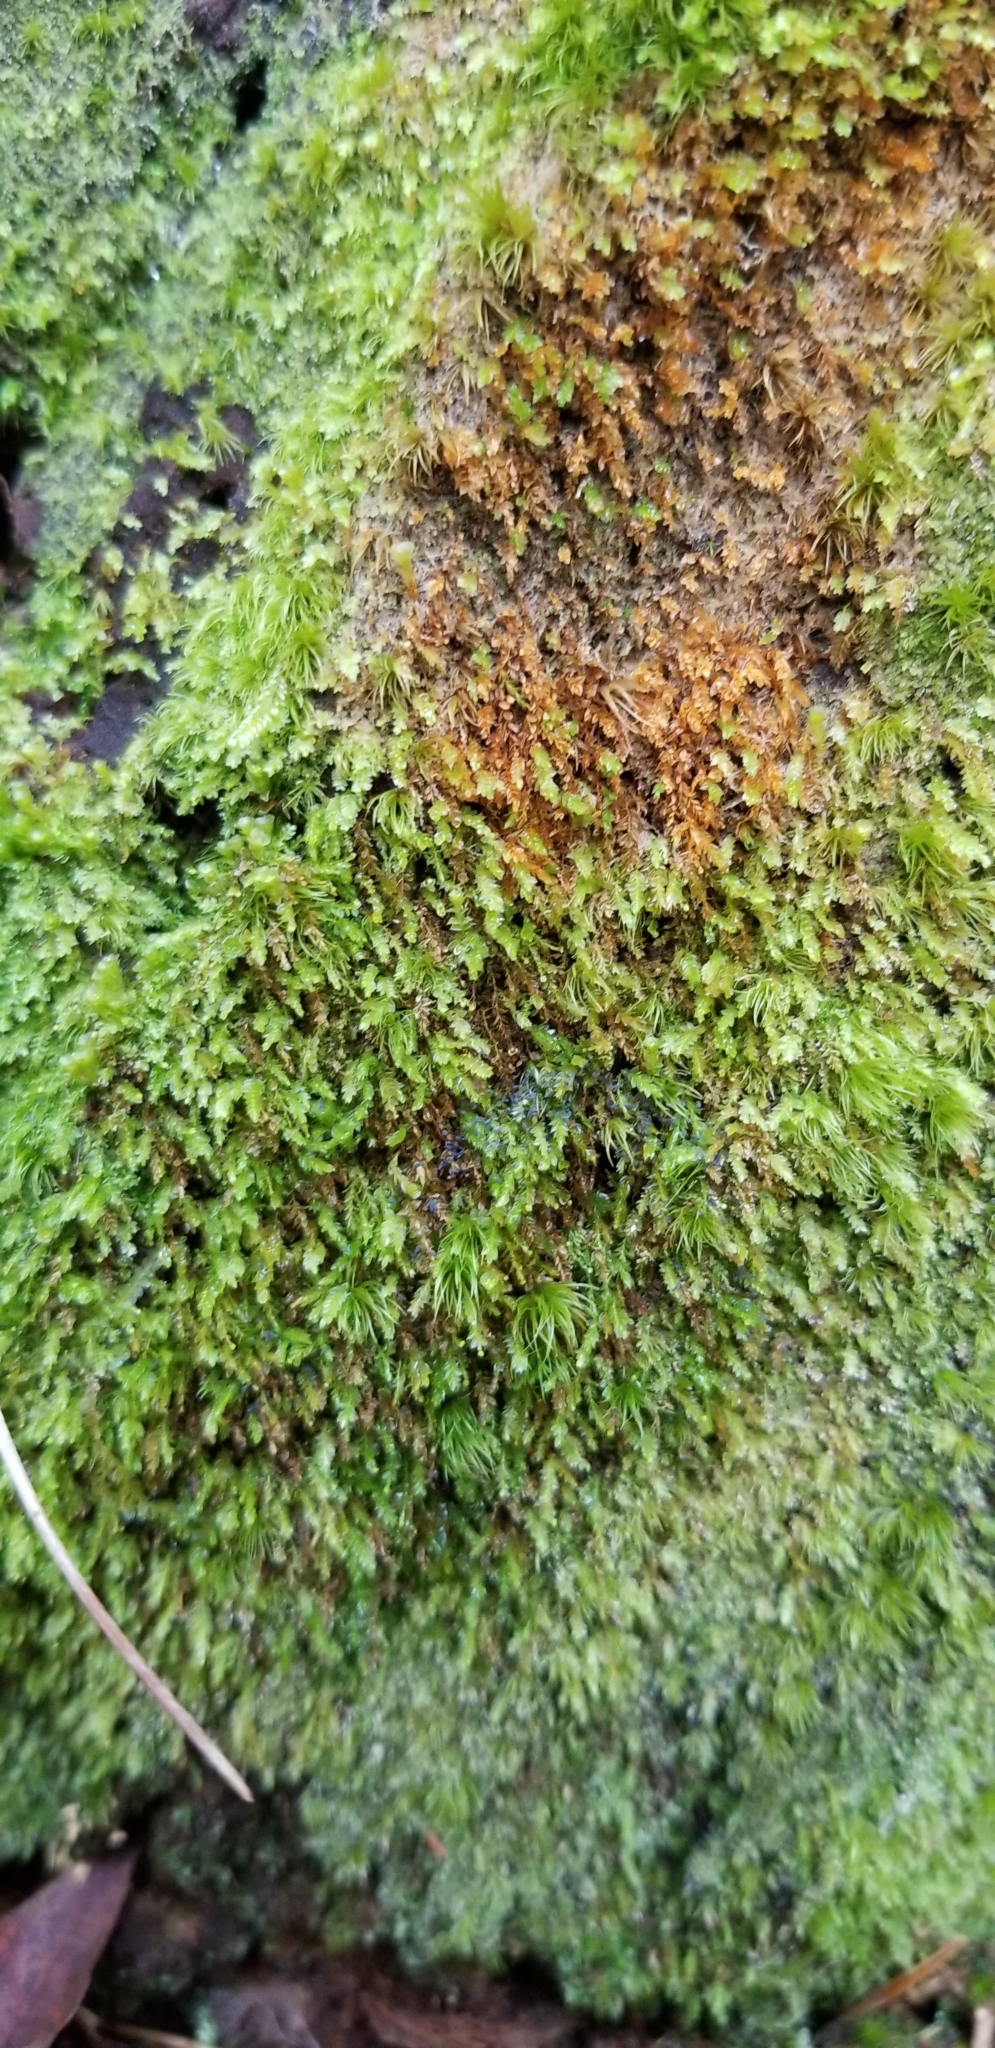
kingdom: Plantae
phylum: Bryophyta
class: Polytrichopsida
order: Tetraphidales
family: Tetraphidaceae
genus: Tetraphis
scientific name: Tetraphis pellucida
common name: Common four-toothed moss
